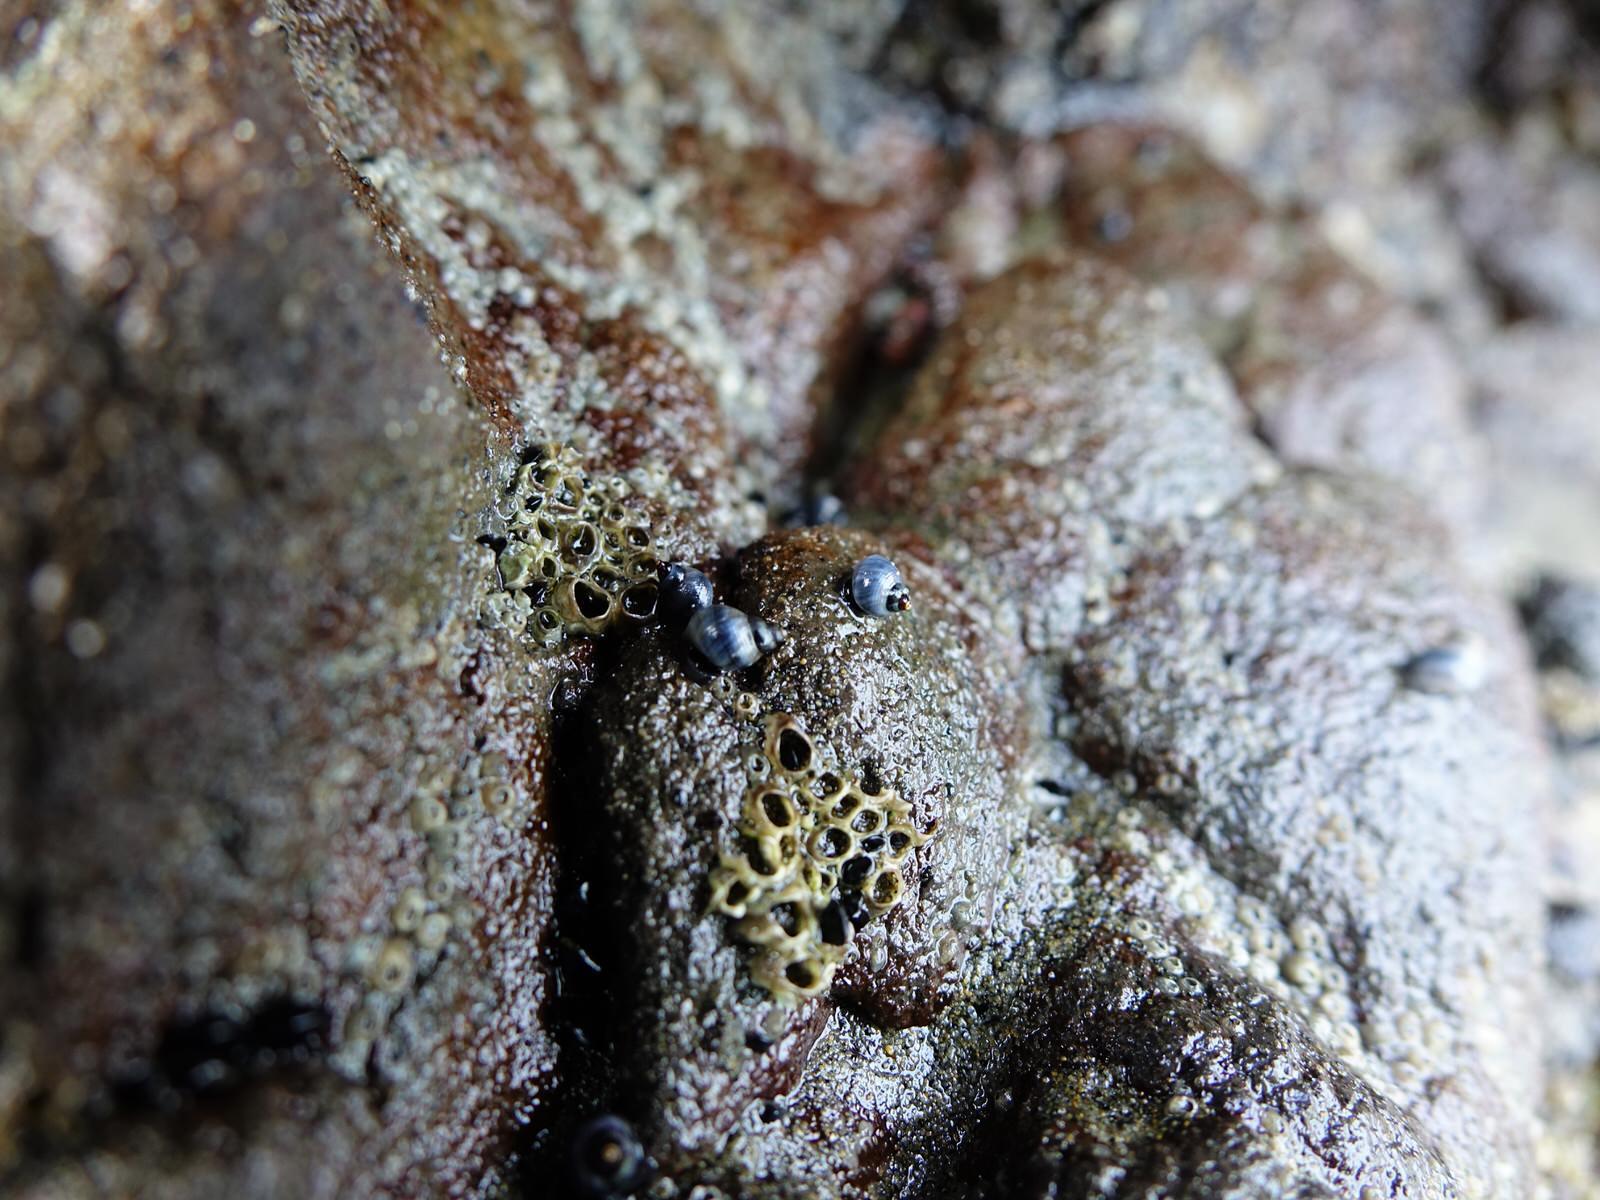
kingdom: Animalia
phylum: Mollusca
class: Gastropoda
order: Littorinimorpha
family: Littorinidae
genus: Austrolittorina
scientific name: Austrolittorina antipodum
